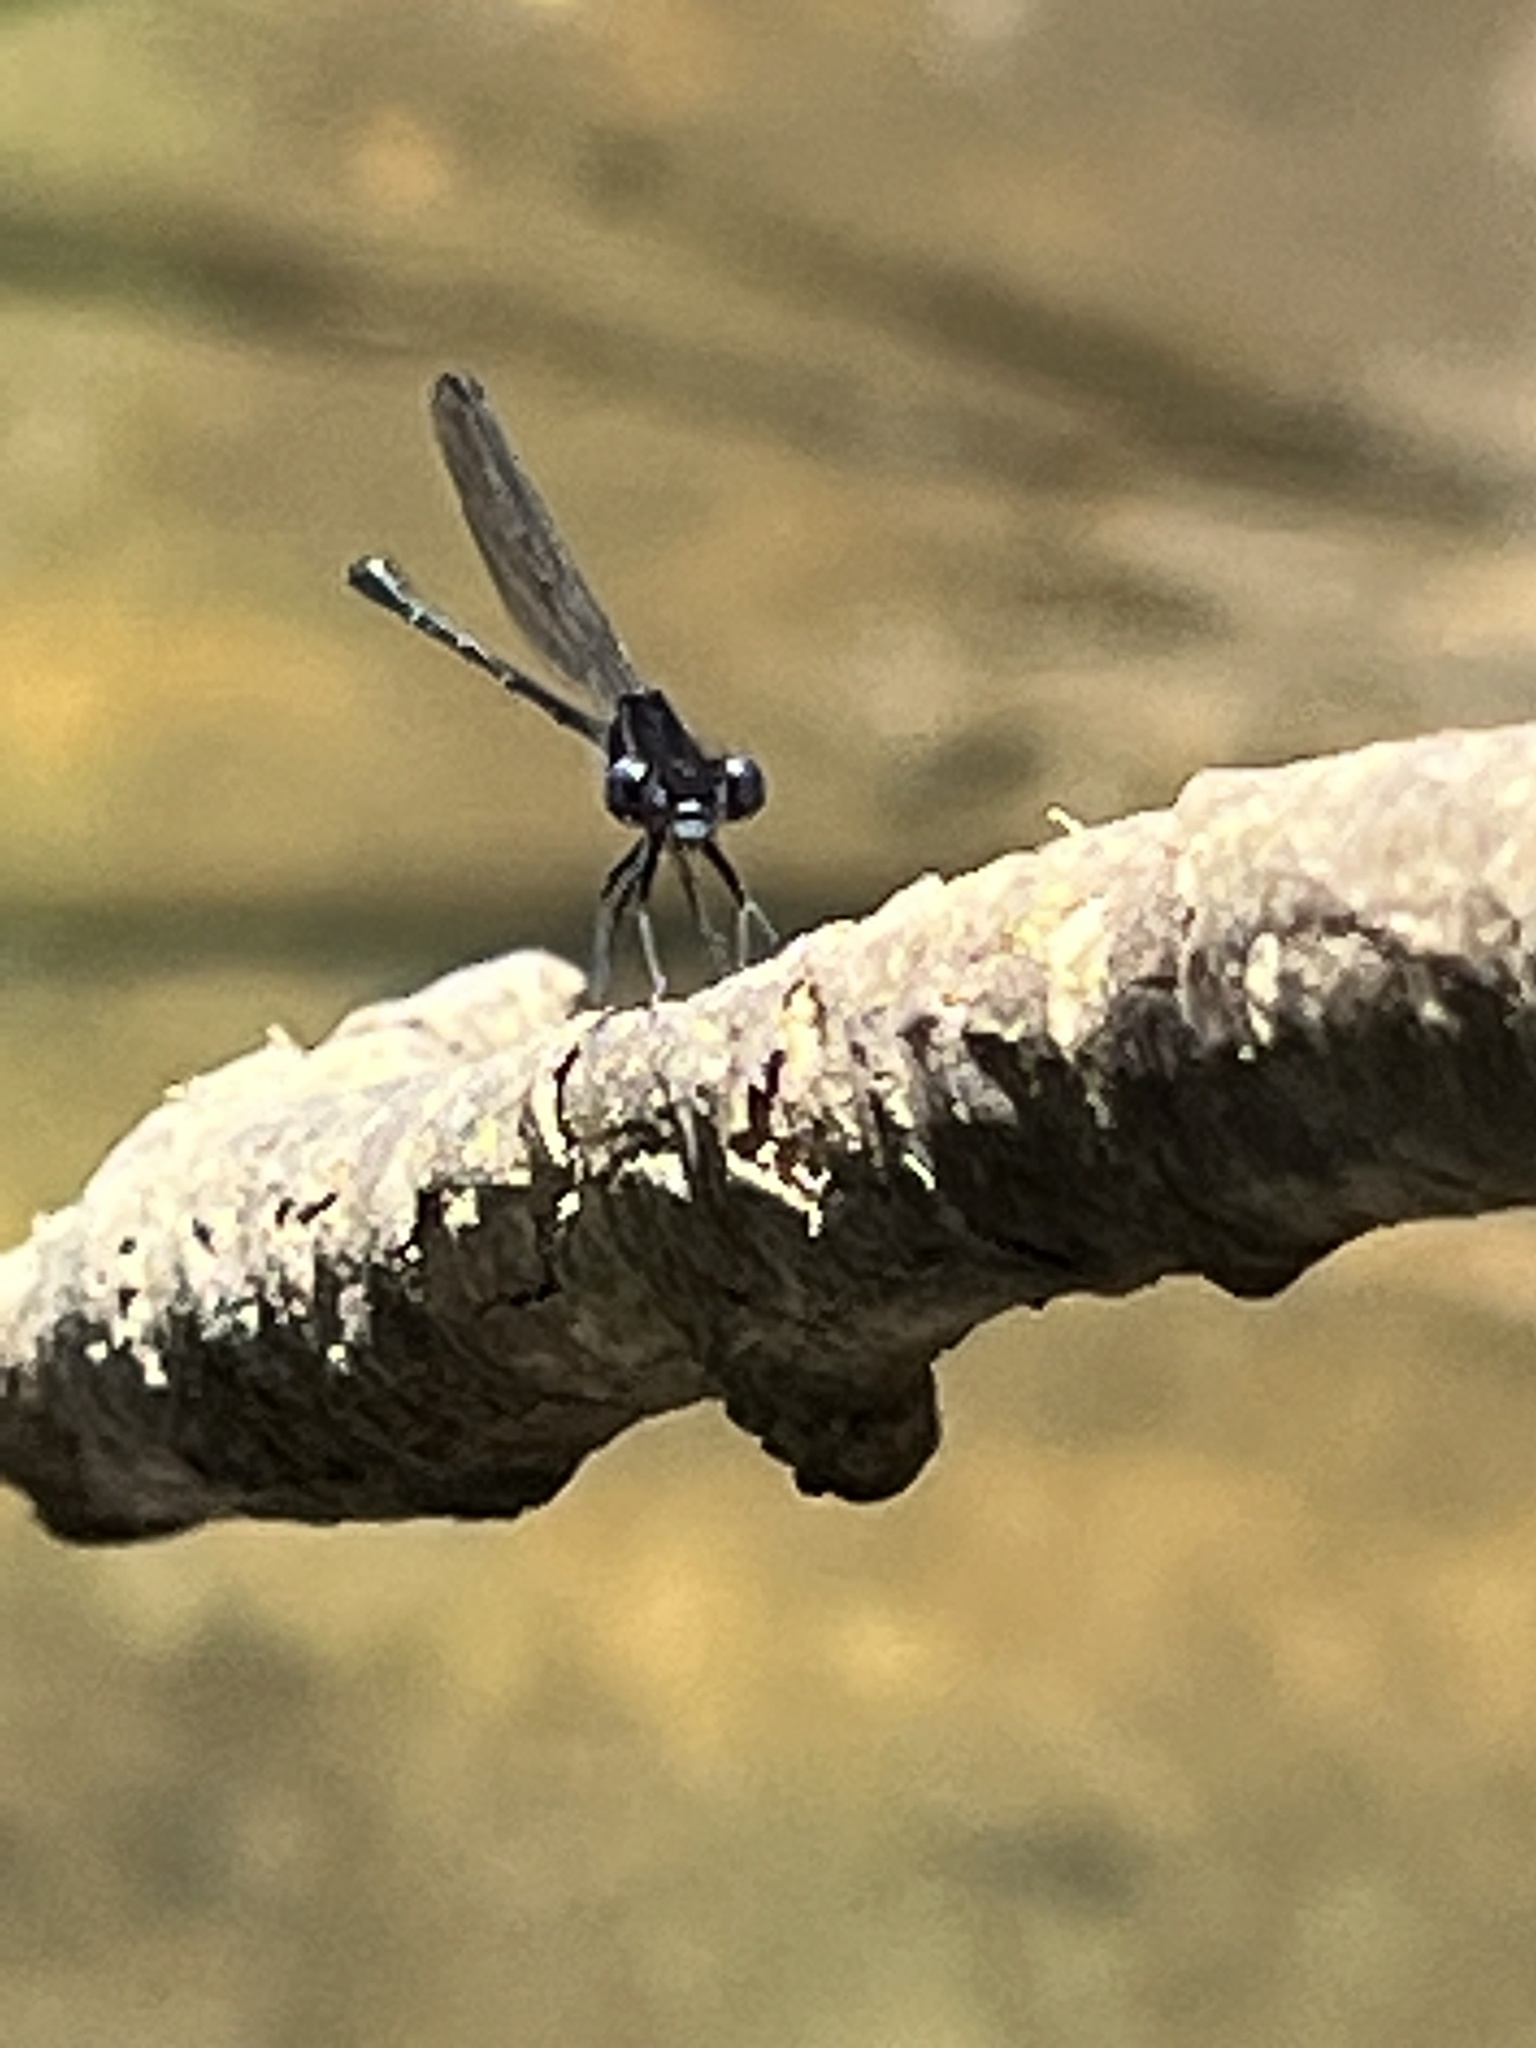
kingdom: Animalia
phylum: Arthropoda
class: Insecta
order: Odonata
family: Coenagrionidae
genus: Argia
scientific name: Argia translata
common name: Dusky dancer
